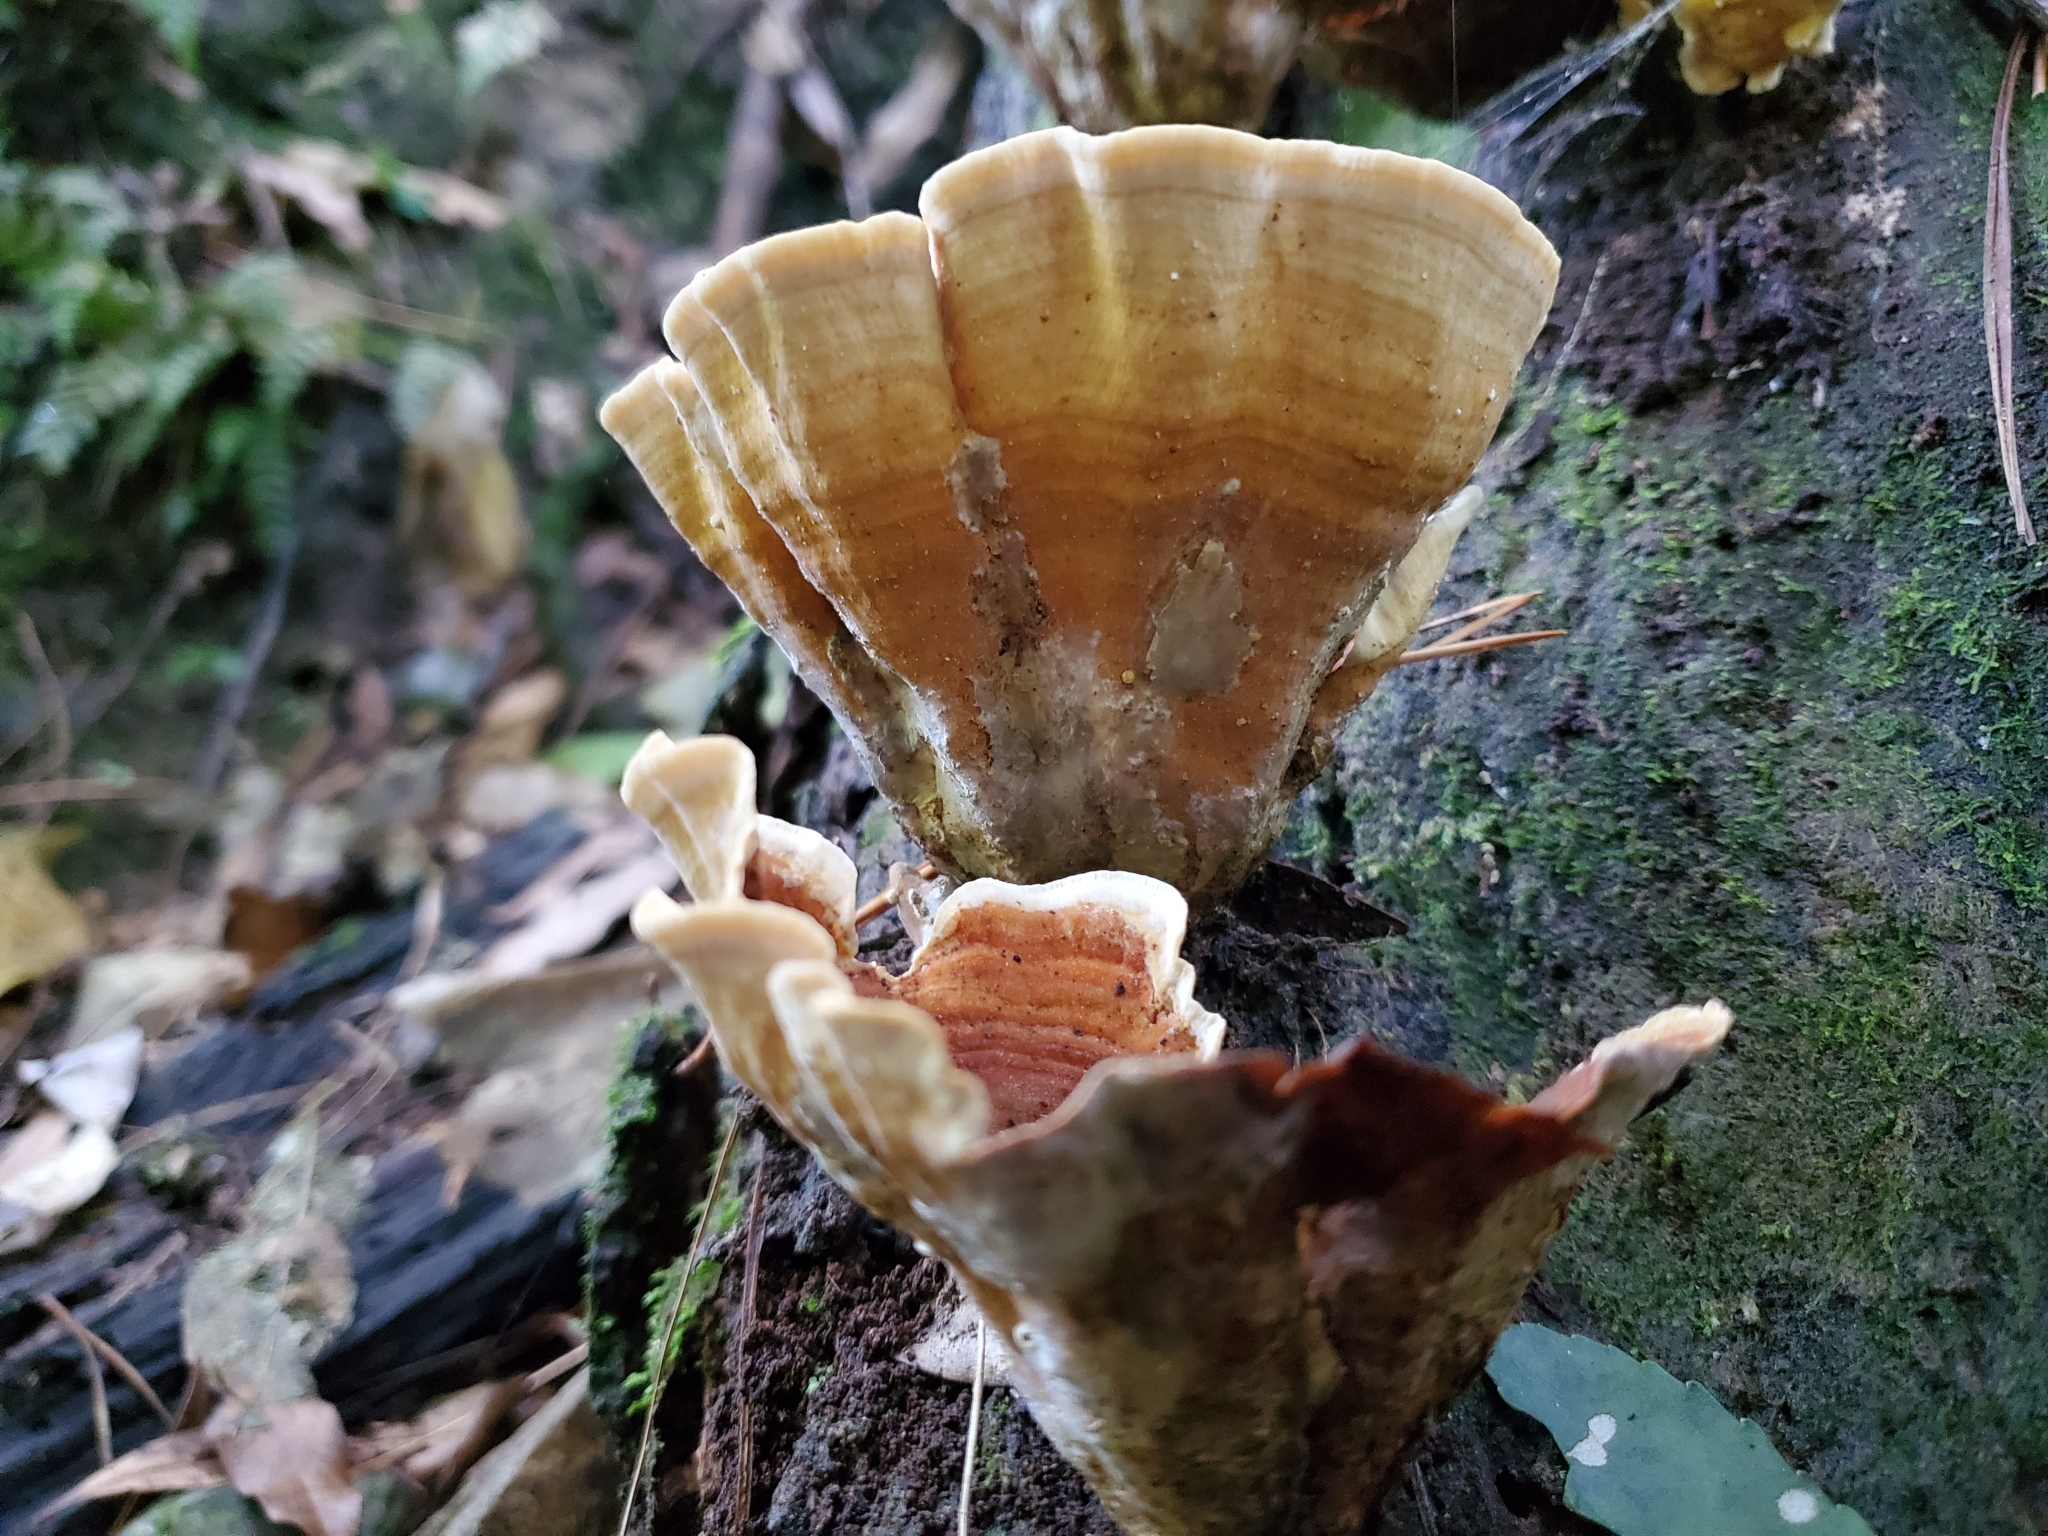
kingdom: Fungi
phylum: Basidiomycota
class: Agaricomycetes
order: Russulales
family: Stereaceae
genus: Stereum
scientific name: Stereum versicolor
